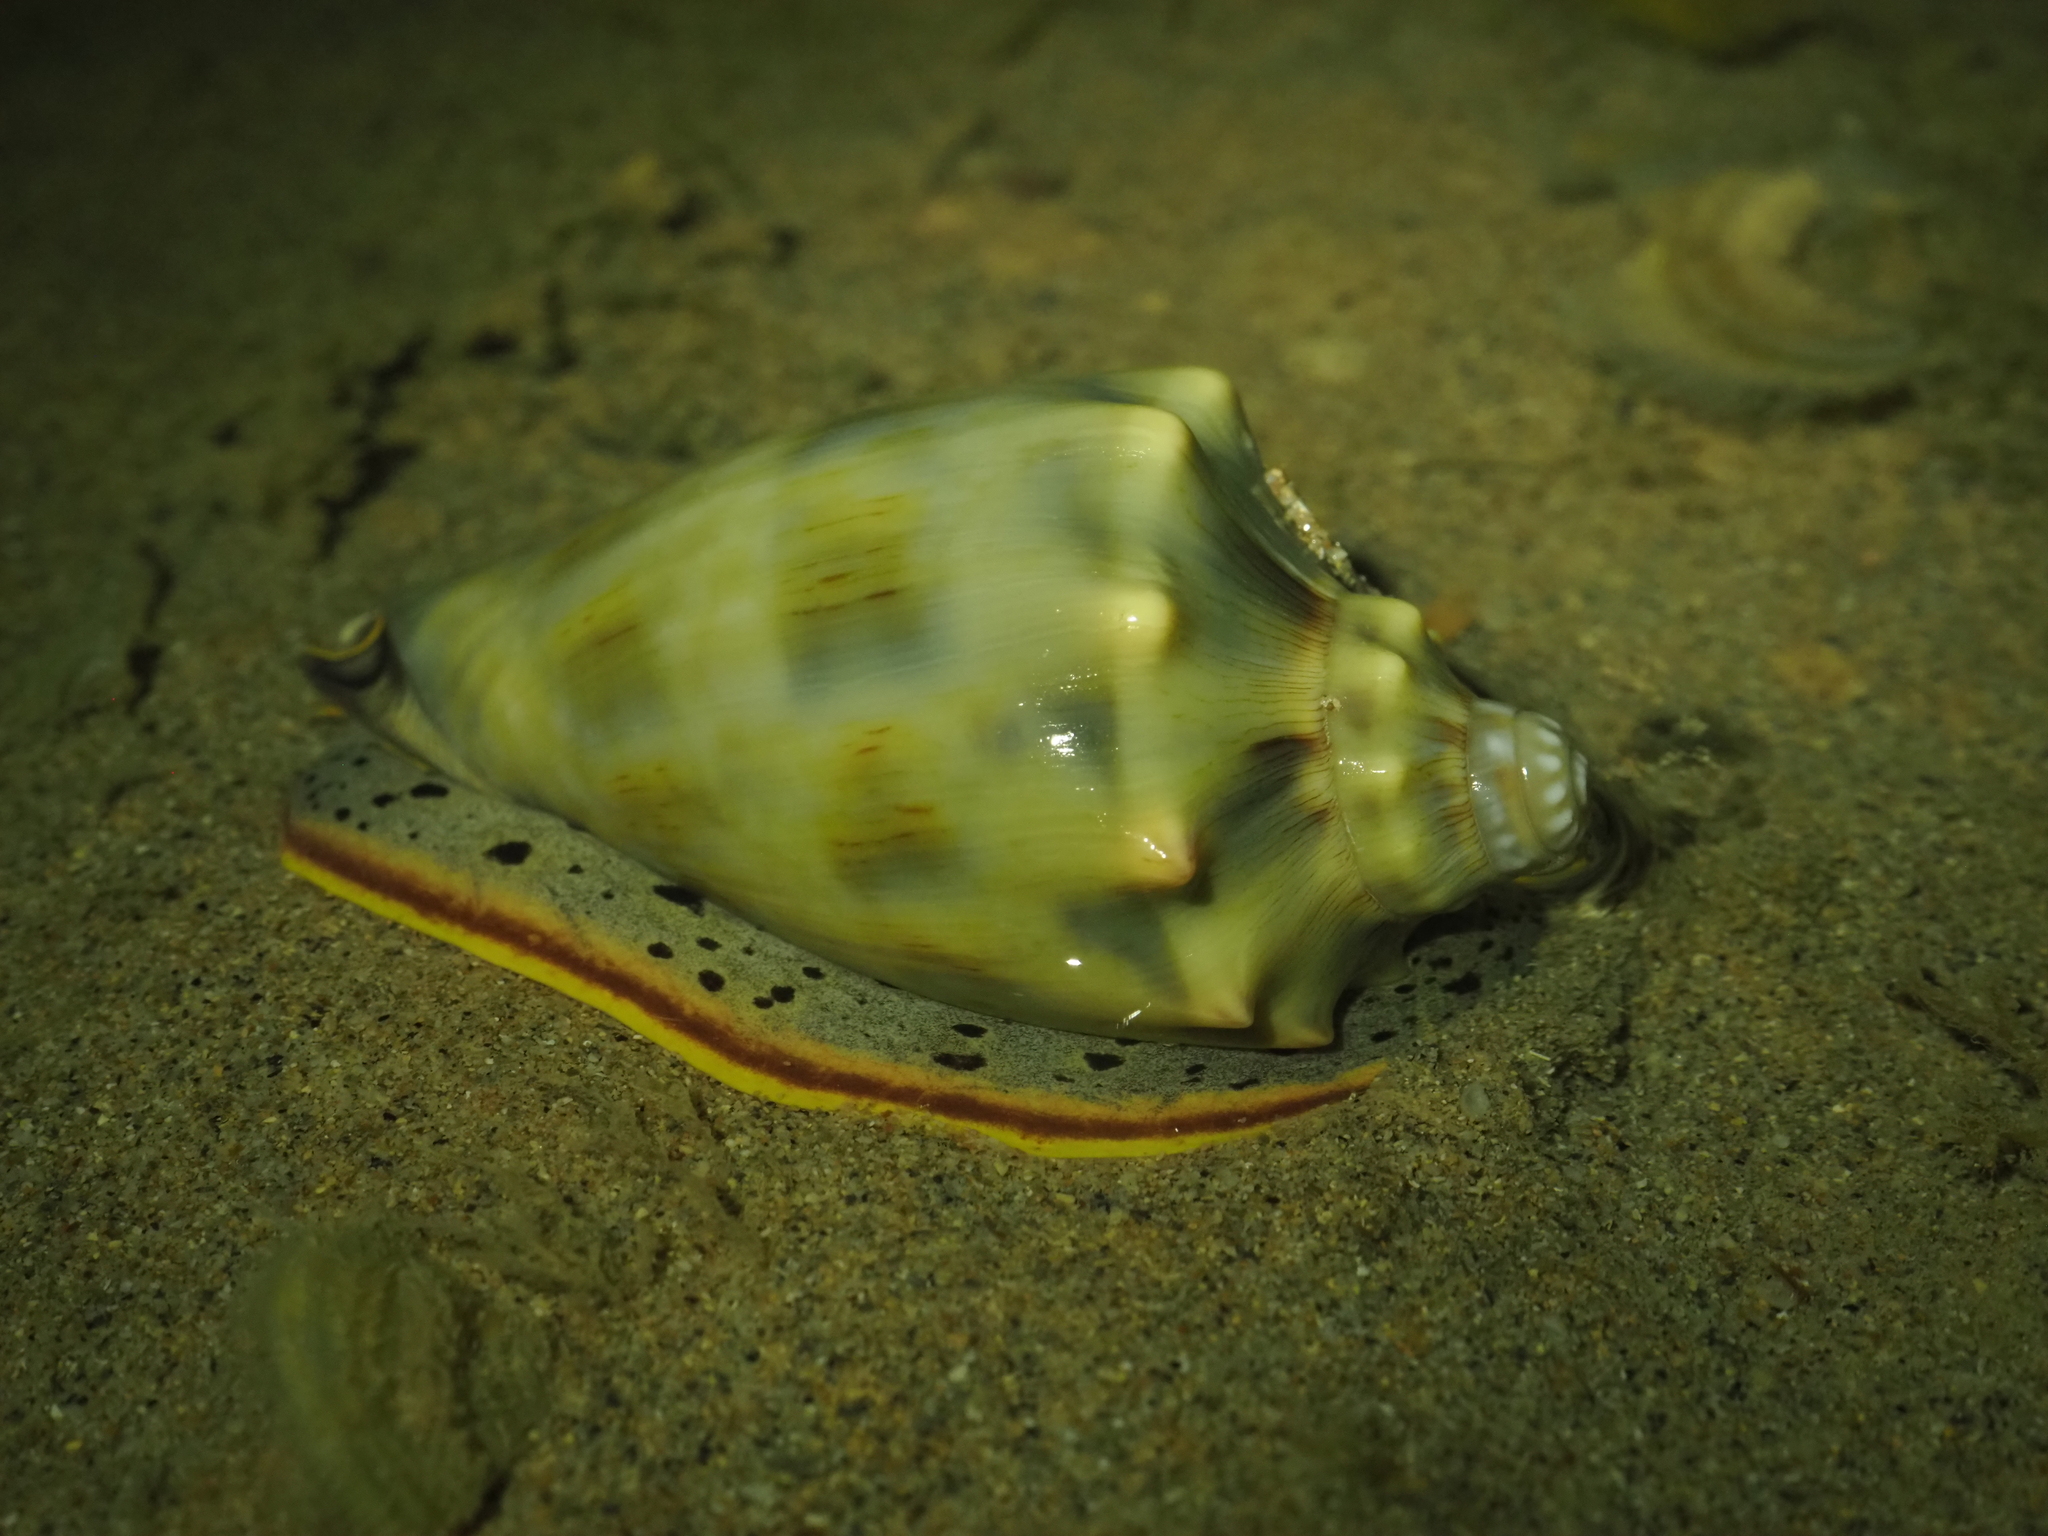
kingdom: Animalia
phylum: Mollusca
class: Gastropoda
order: Neogastropoda
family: Volutidae
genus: Cymbiola
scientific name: Cymbiola nivosa
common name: Snowy volute
